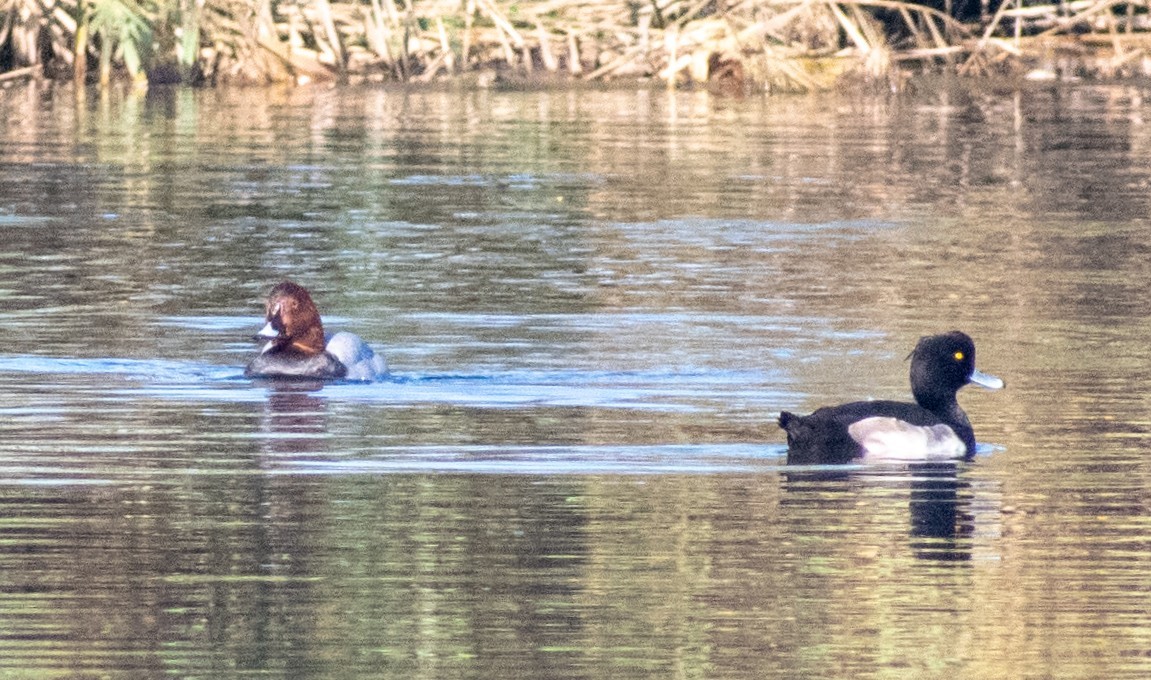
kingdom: Animalia
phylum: Chordata
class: Aves
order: Anseriformes
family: Anatidae
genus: Aythya
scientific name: Aythya ferina
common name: Common pochard
